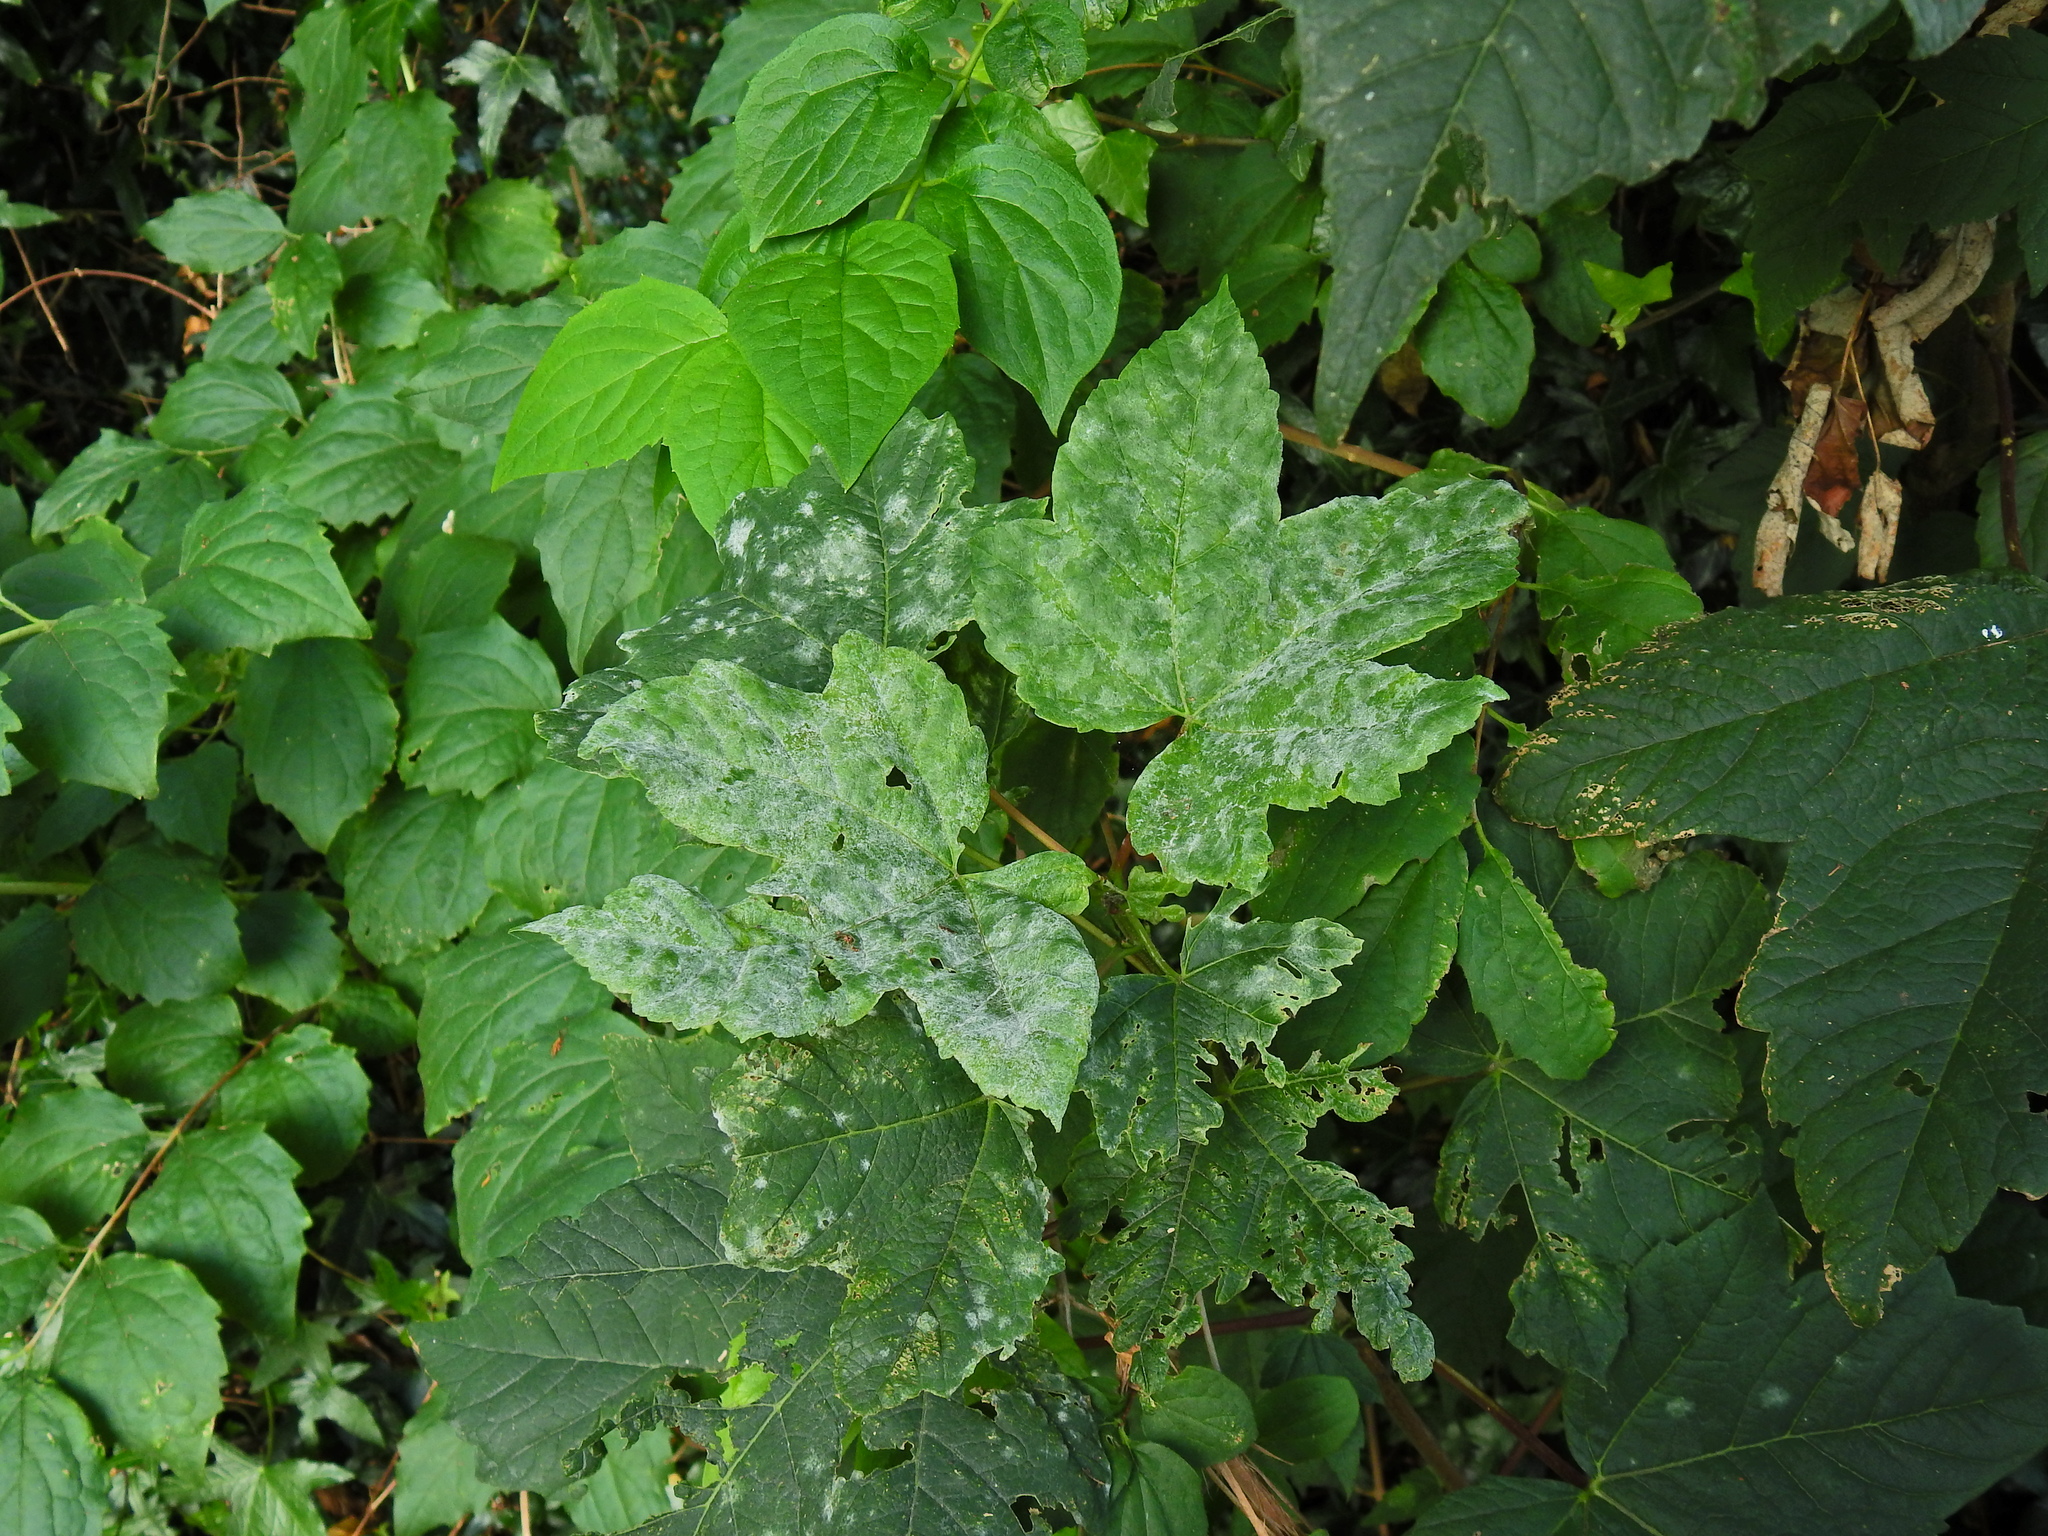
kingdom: Fungi
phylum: Ascomycota
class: Leotiomycetes
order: Helotiales
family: Erysiphaceae
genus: Sawadaea
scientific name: Sawadaea bicornis
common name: Maple mildew
